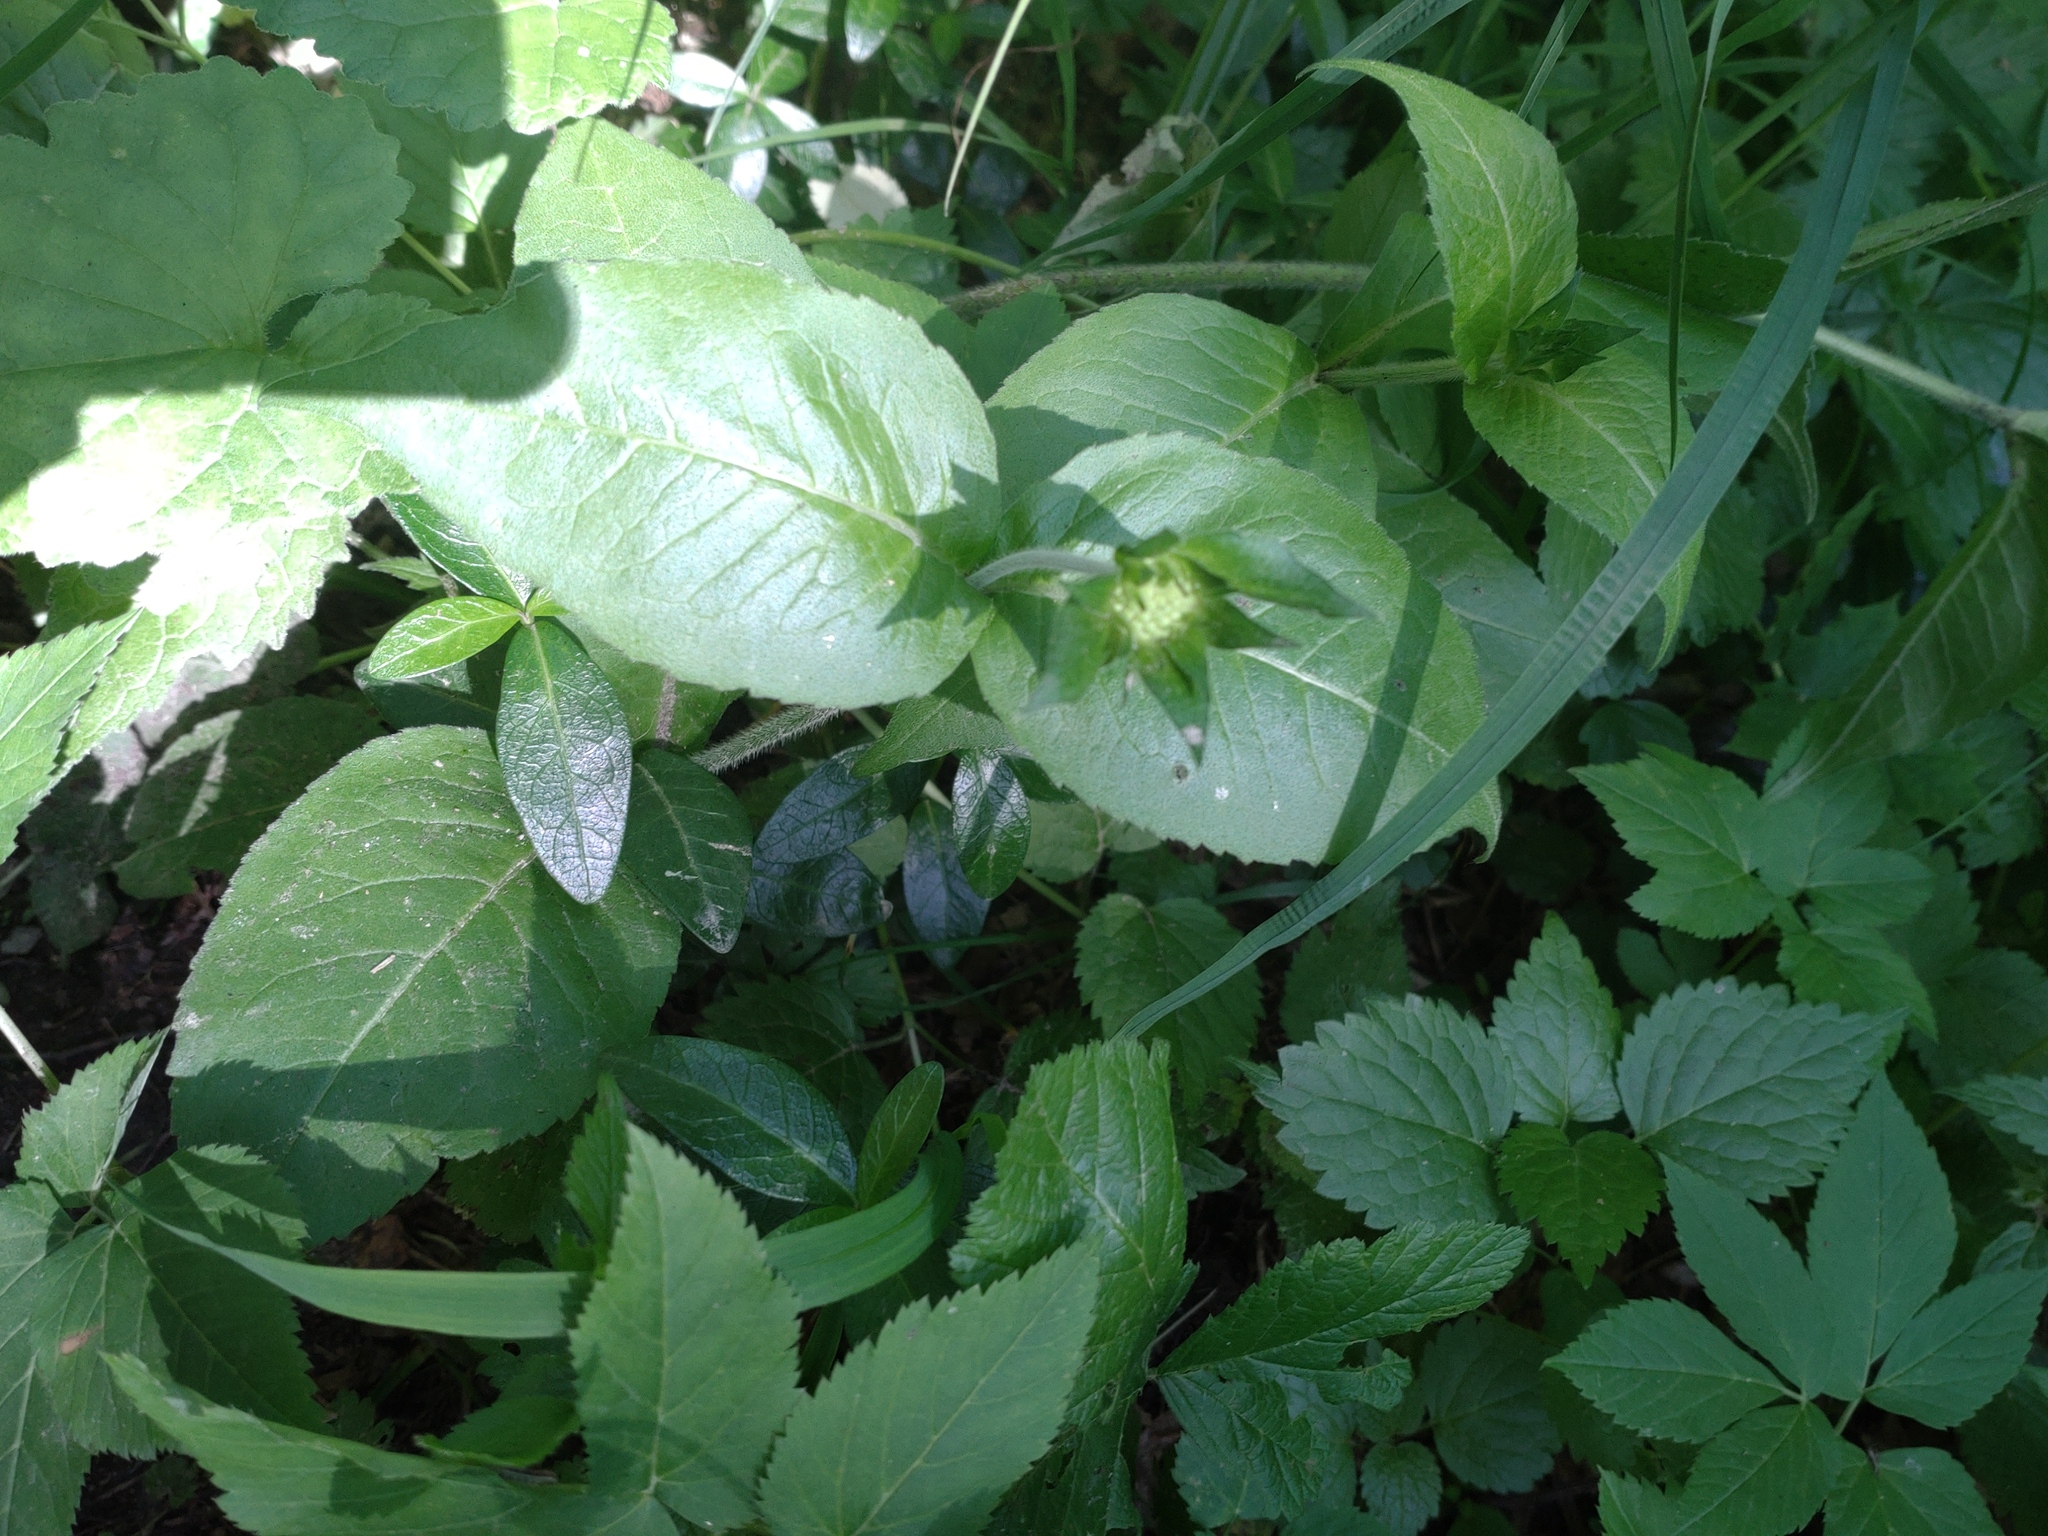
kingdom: Plantae
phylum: Tracheophyta
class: Magnoliopsida
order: Dipsacales
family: Caprifoliaceae
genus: Knautia
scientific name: Knautia drymeia
